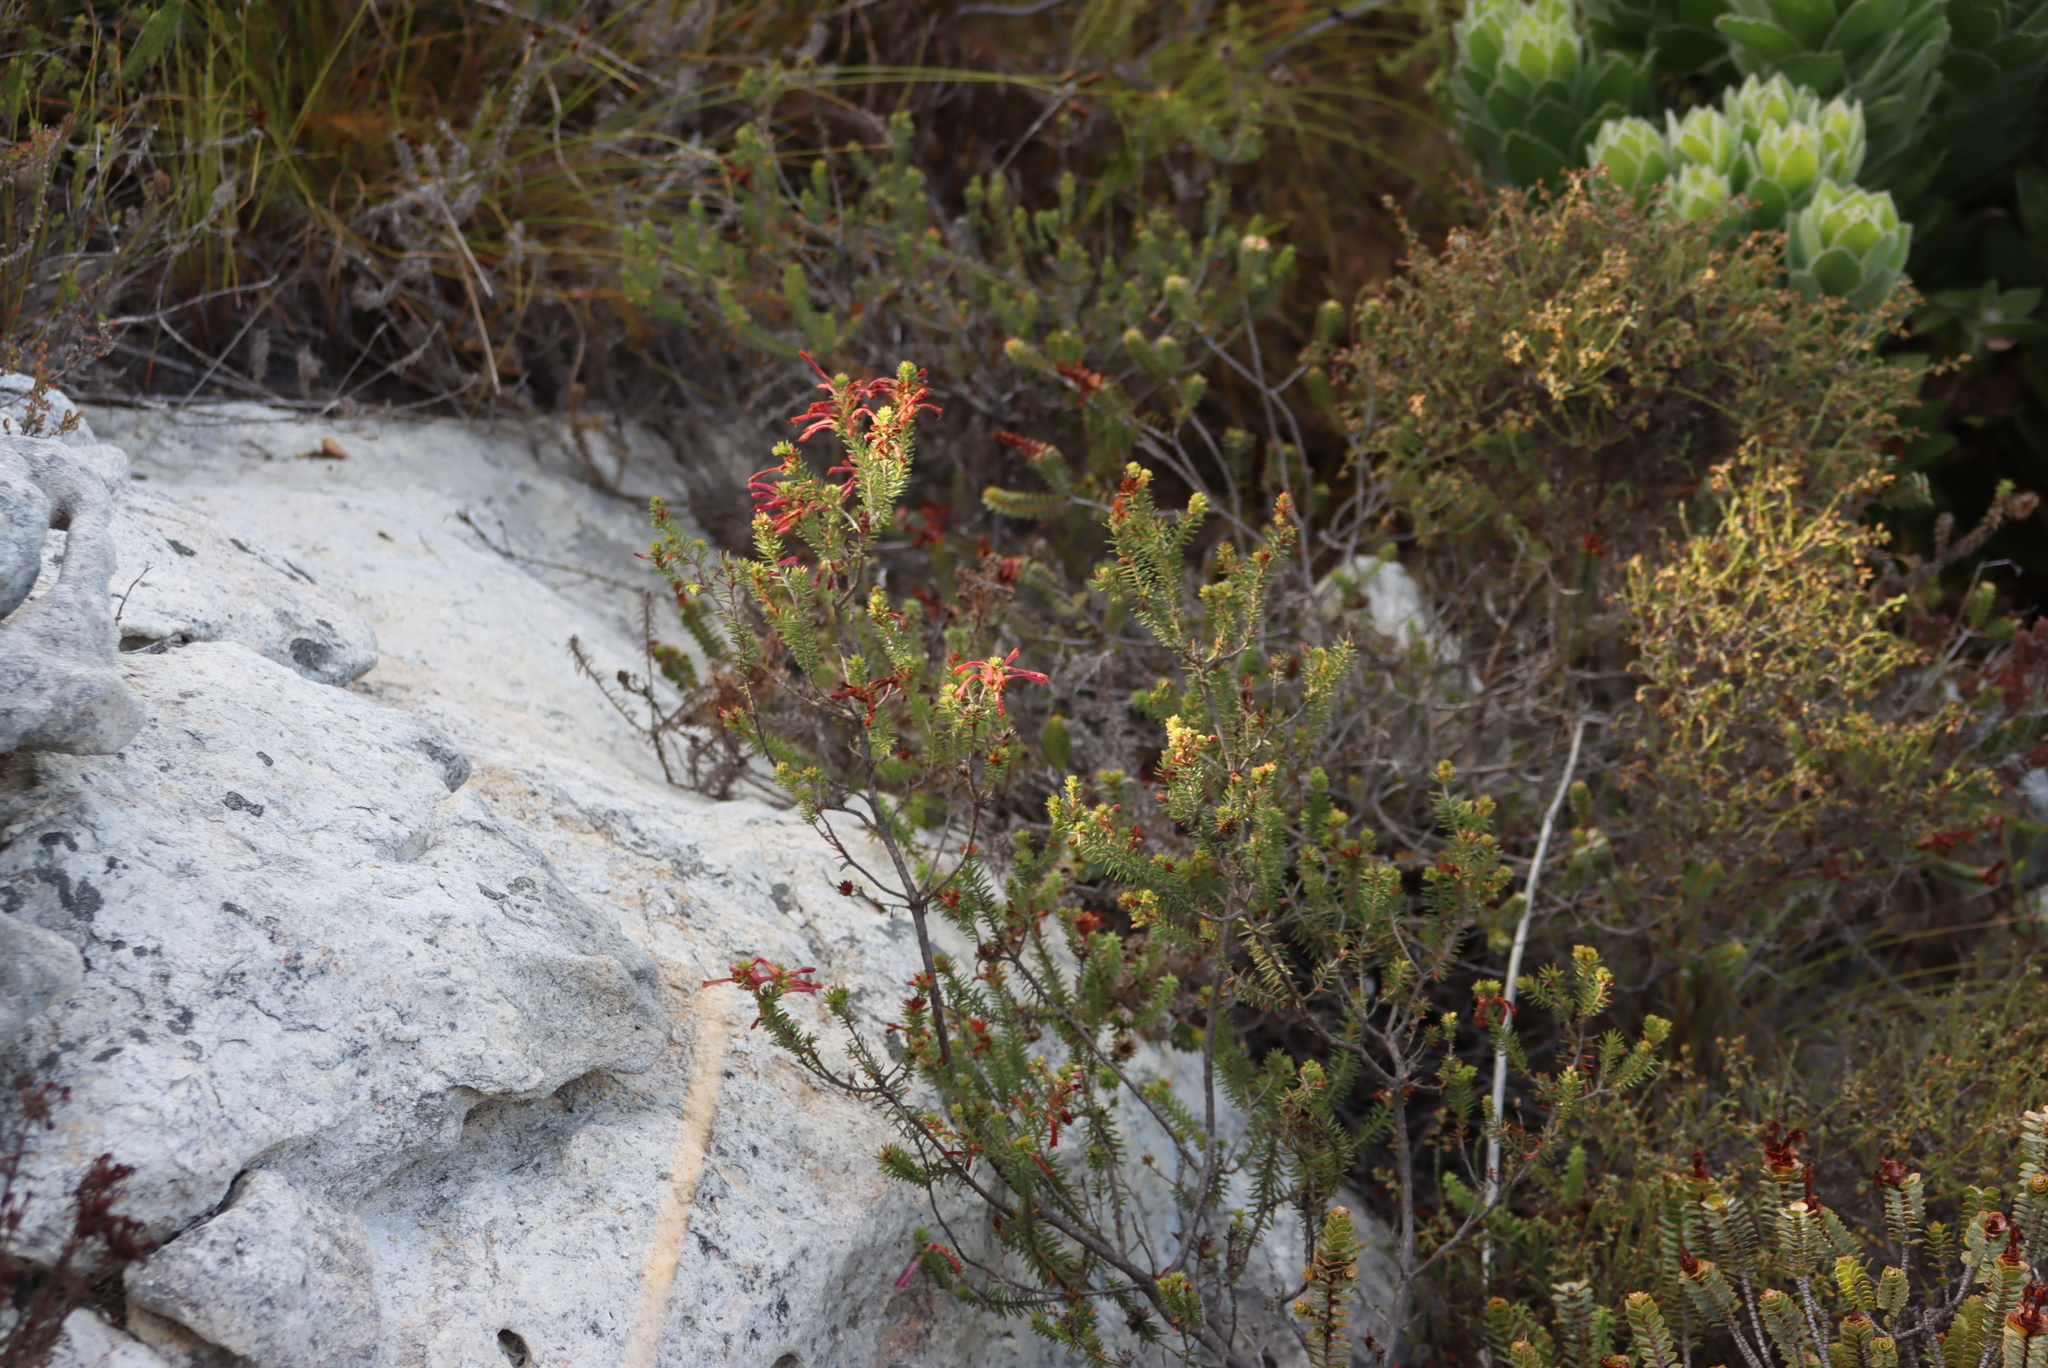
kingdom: Plantae
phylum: Tracheophyta
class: Magnoliopsida
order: Ericales
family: Ericaceae
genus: Erica
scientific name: Erica abietina
